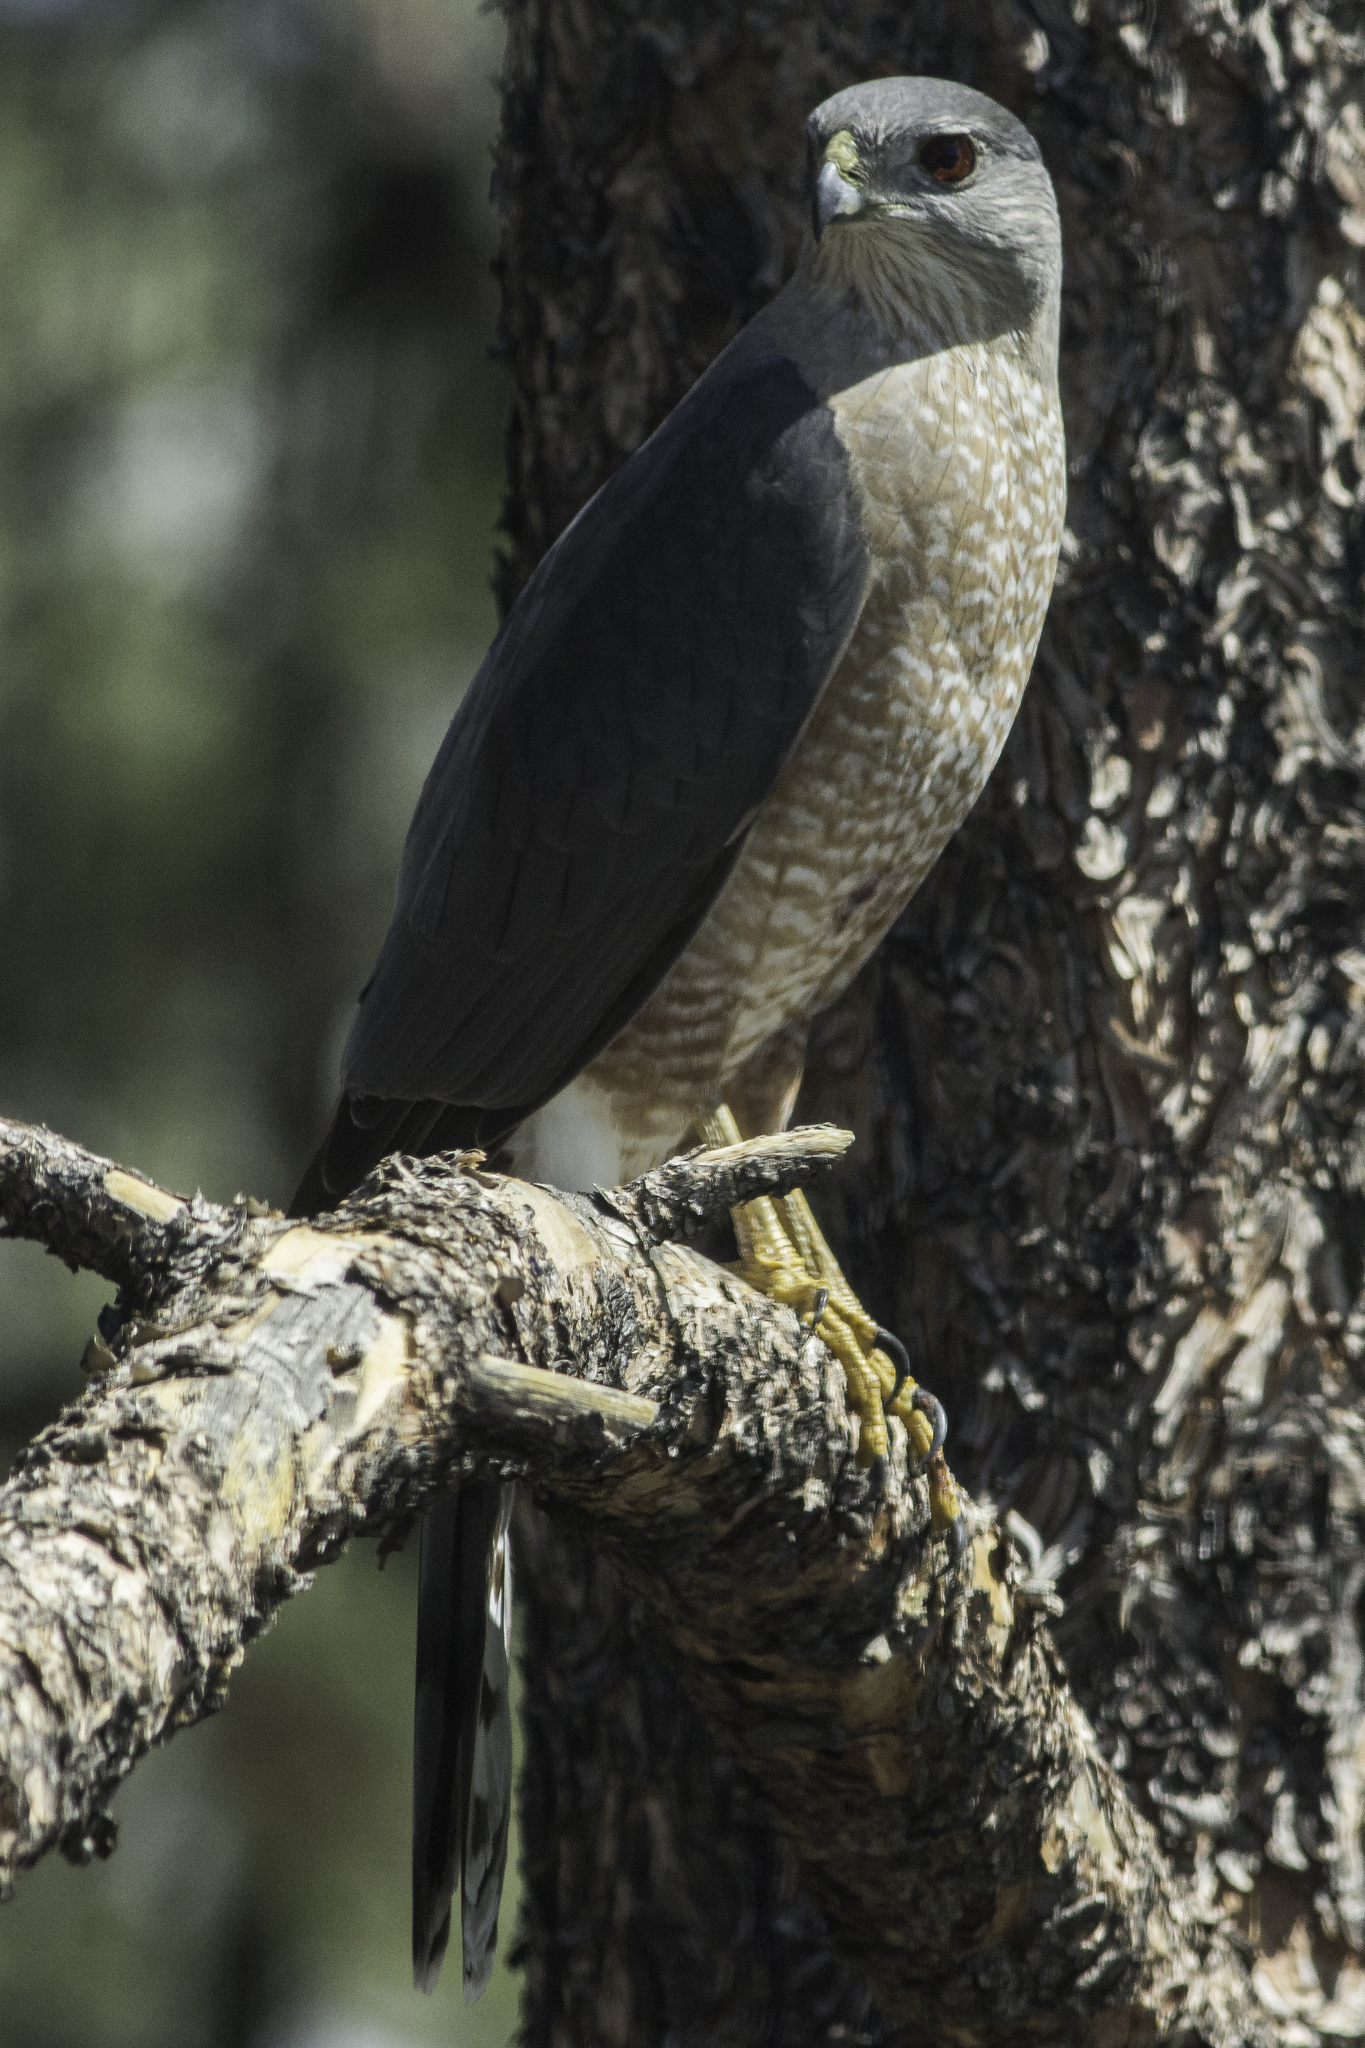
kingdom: Animalia
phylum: Chordata
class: Aves
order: Accipitriformes
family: Accipitridae
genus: Accipiter
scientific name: Accipiter cooperii
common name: Cooper's hawk
